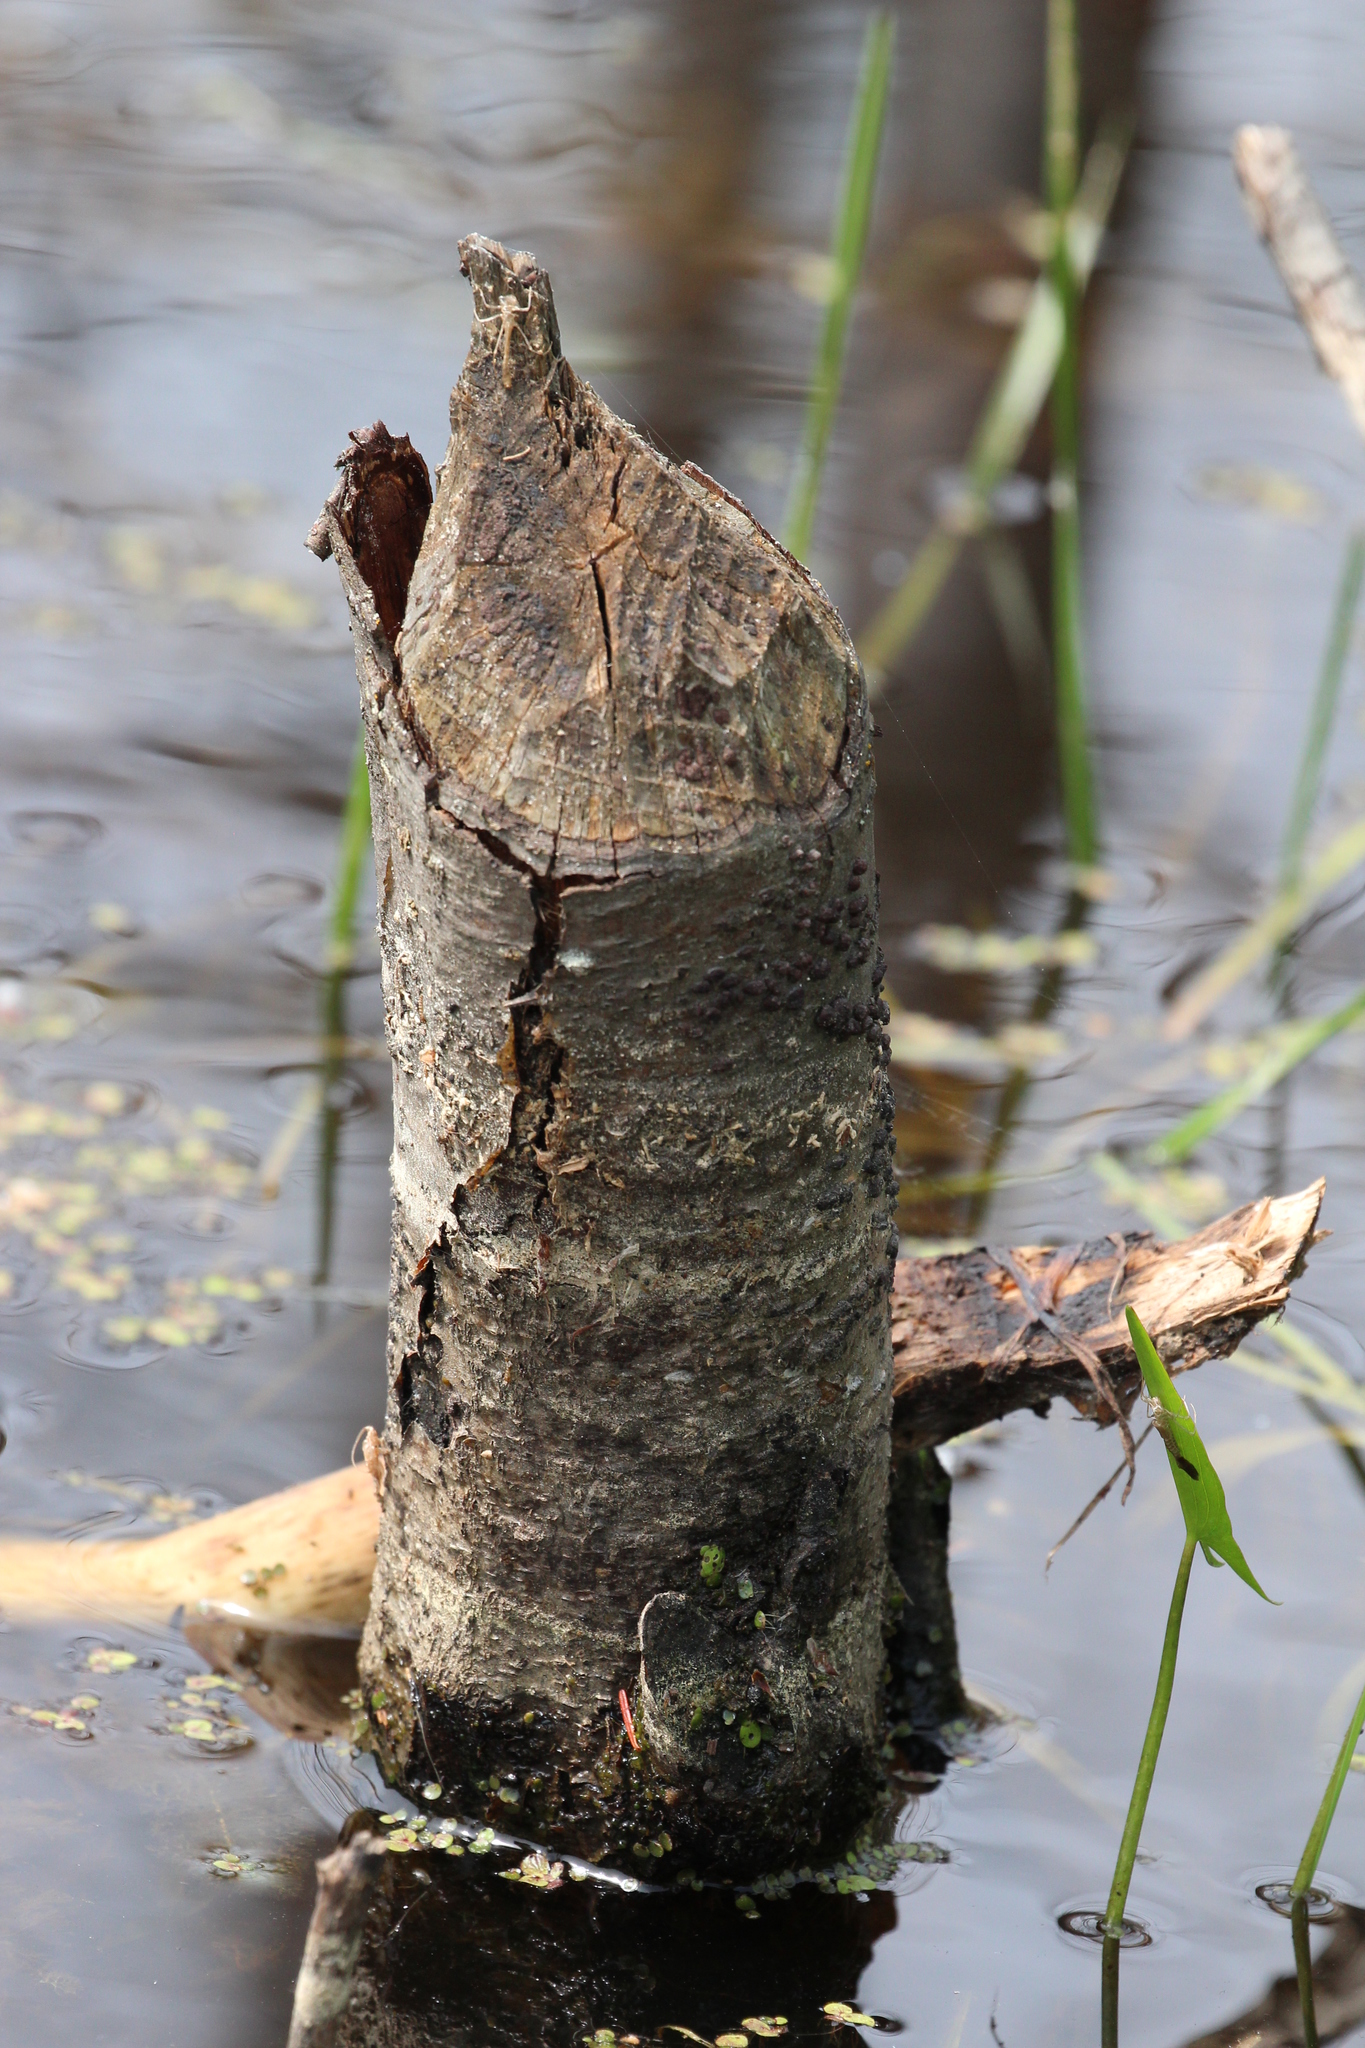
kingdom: Animalia
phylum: Chordata
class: Mammalia
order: Rodentia
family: Castoridae
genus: Castor
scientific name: Castor canadensis
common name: American beaver
